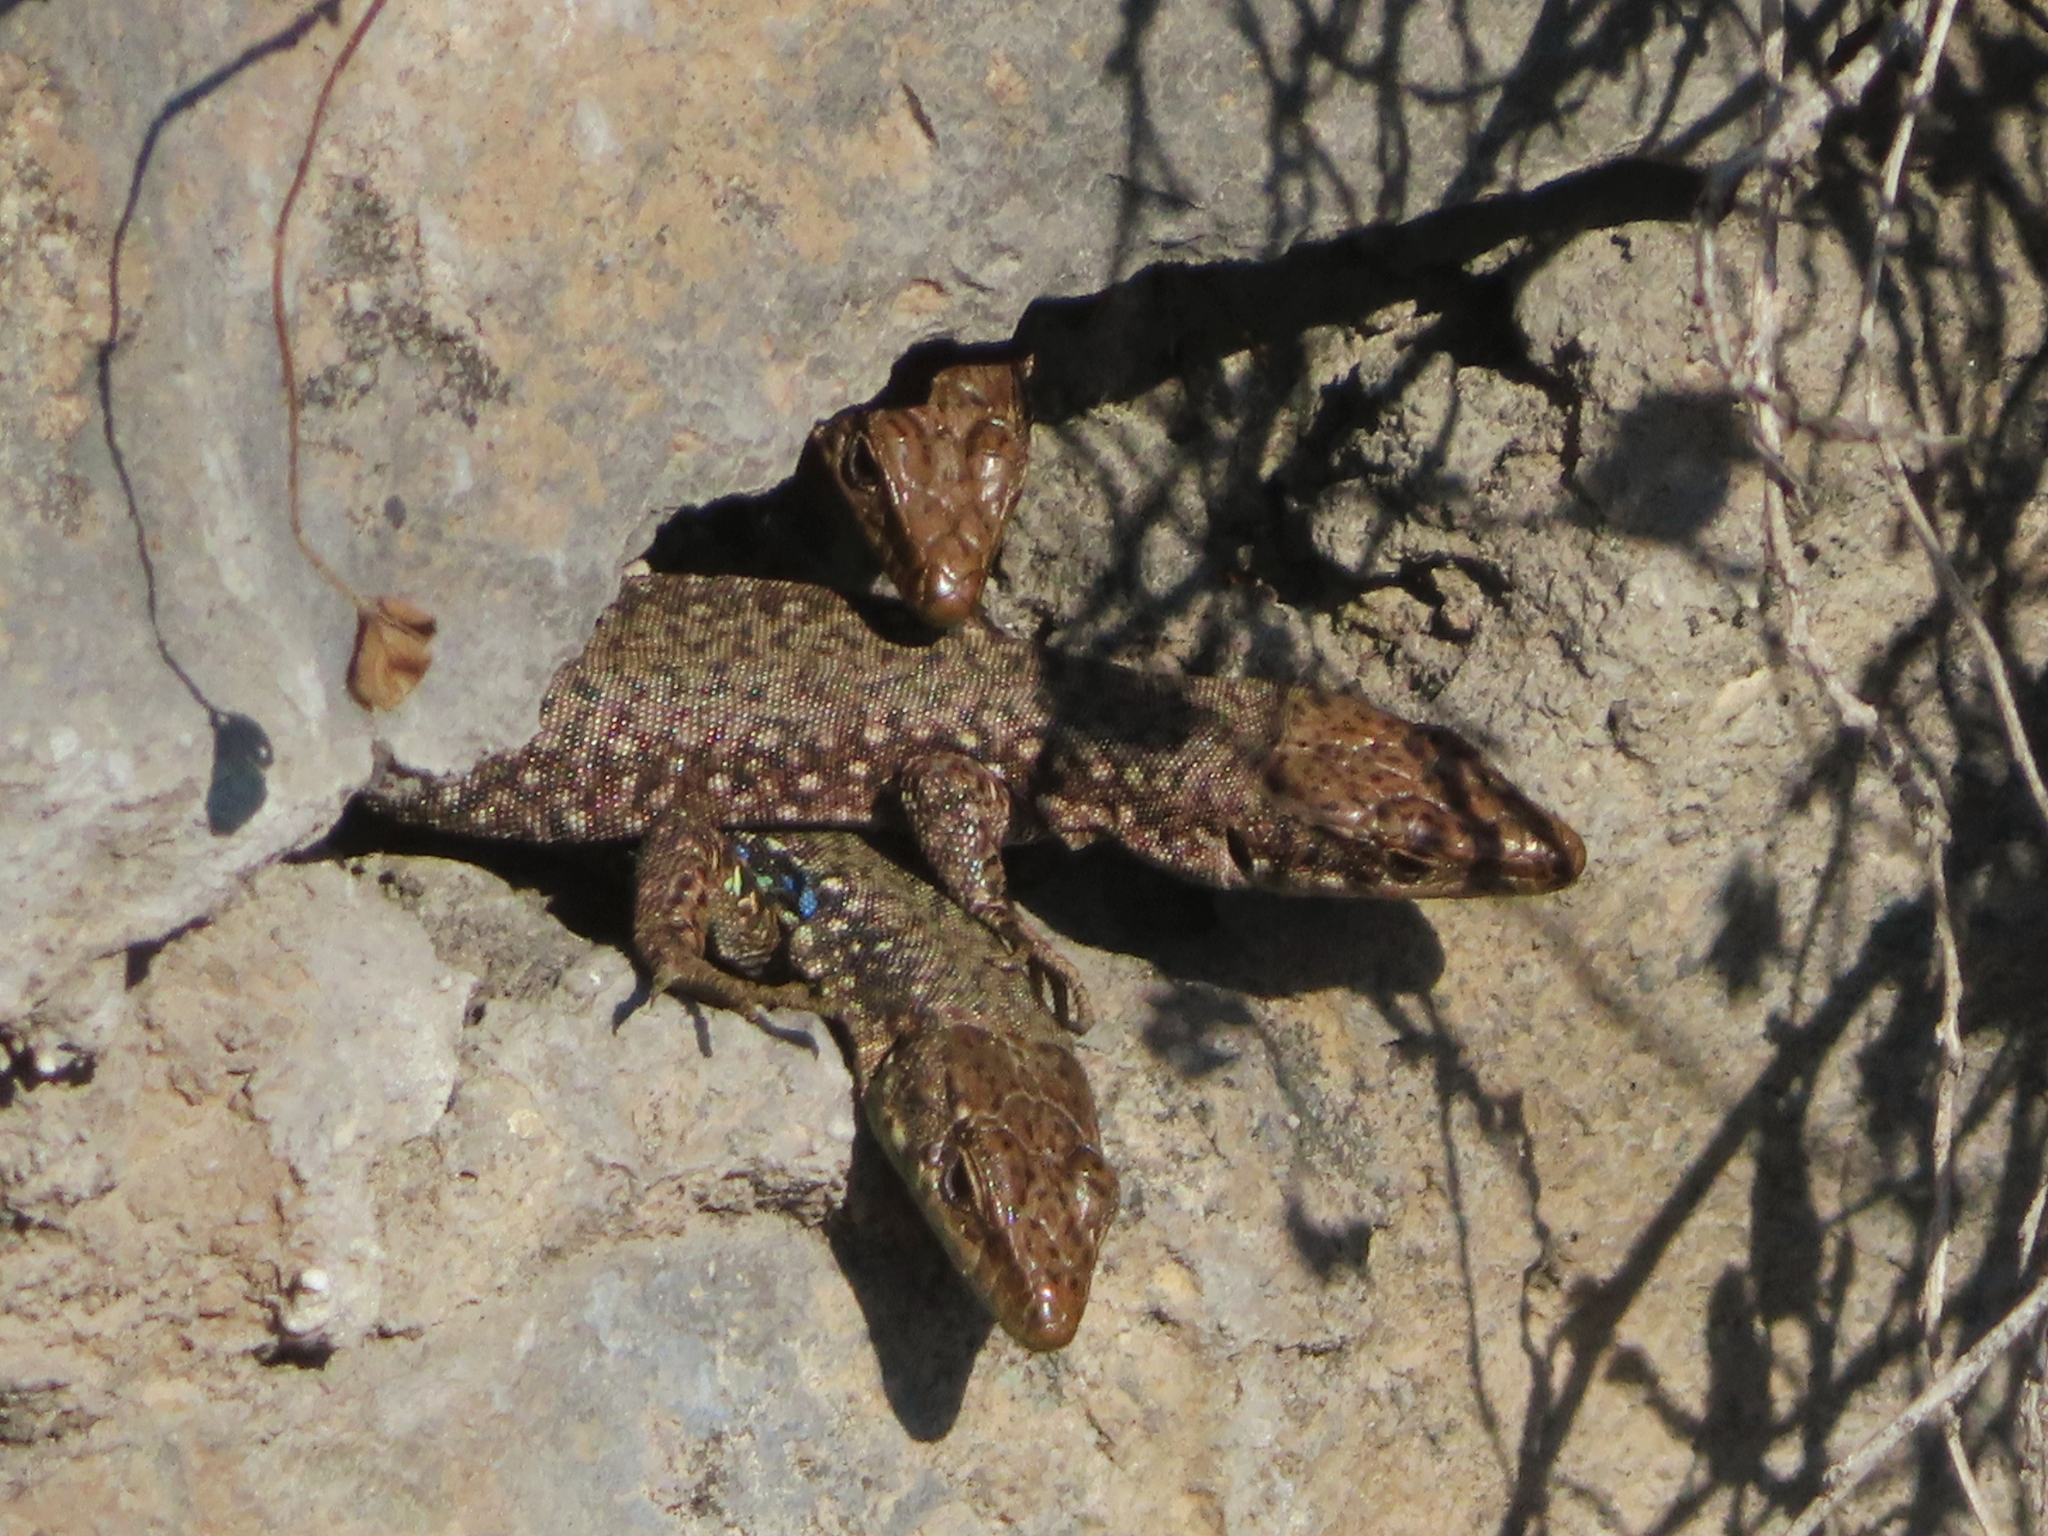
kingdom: Animalia
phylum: Chordata
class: Squamata
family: Lacertidae
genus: Darevskia
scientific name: Darevskia
